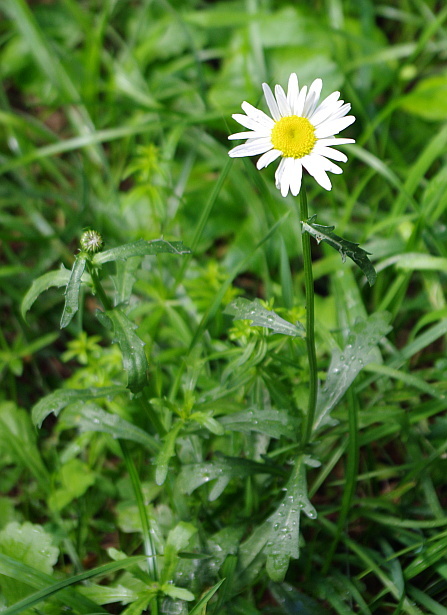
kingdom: Plantae
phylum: Tracheophyta
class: Magnoliopsida
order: Asterales
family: Asteraceae
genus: Leucanthemum
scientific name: Leucanthemum vulgare
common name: Oxeye daisy
